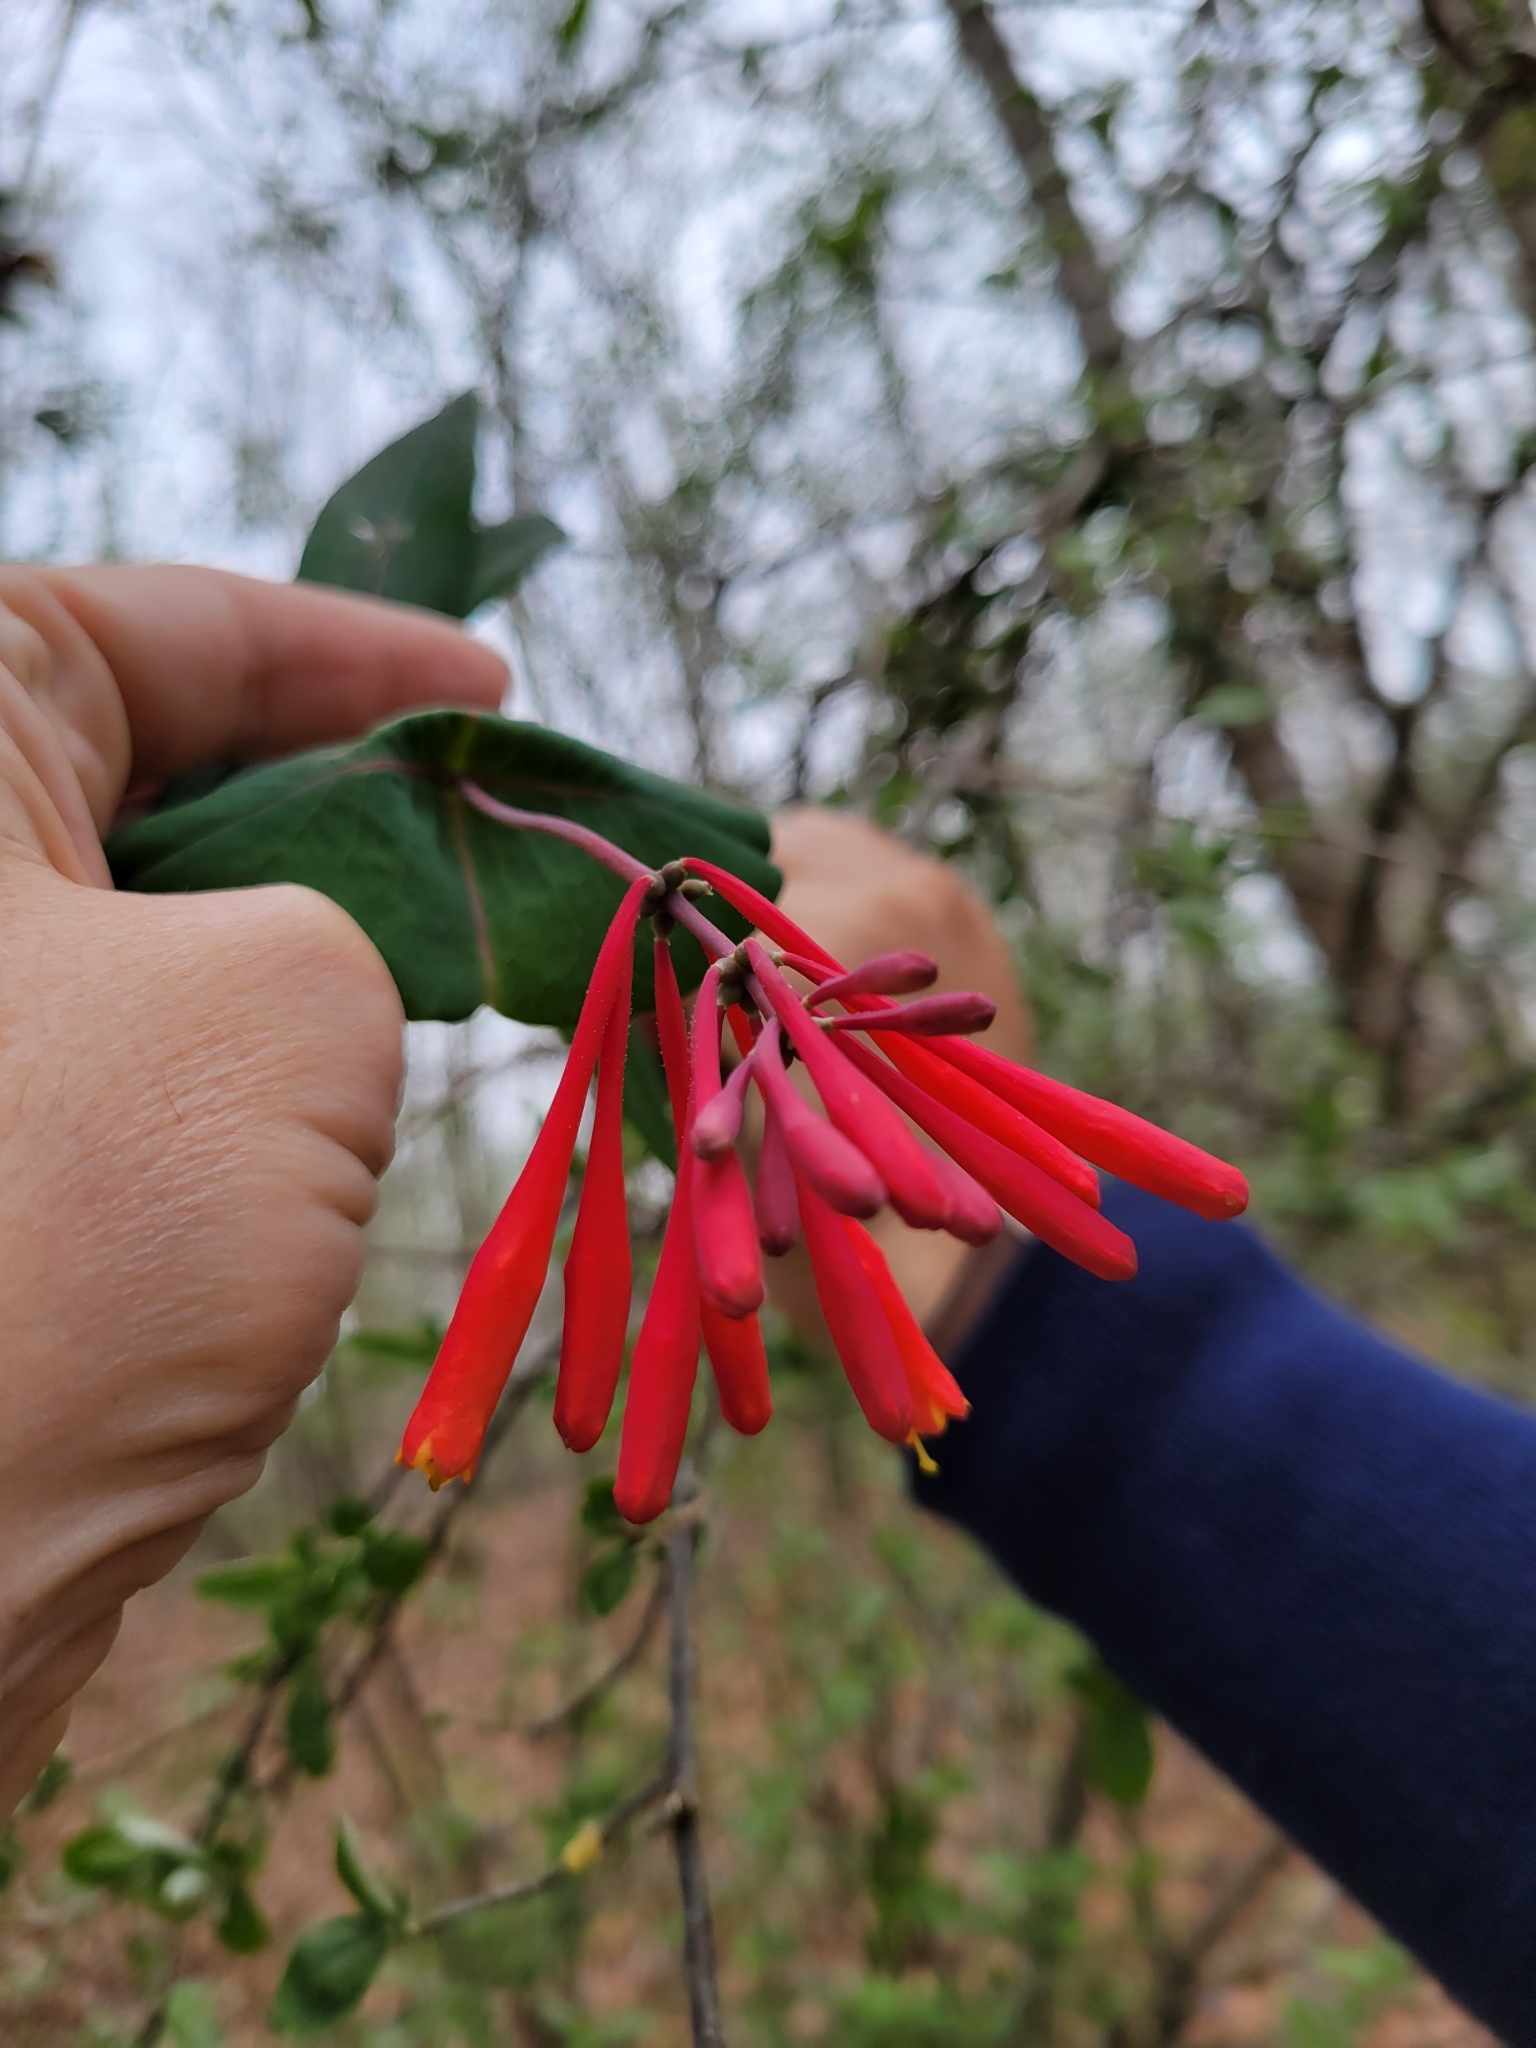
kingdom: Plantae
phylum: Tracheophyta
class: Magnoliopsida
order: Dipsacales
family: Caprifoliaceae
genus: Lonicera
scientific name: Lonicera sempervirens
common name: Coral honeysuckle
